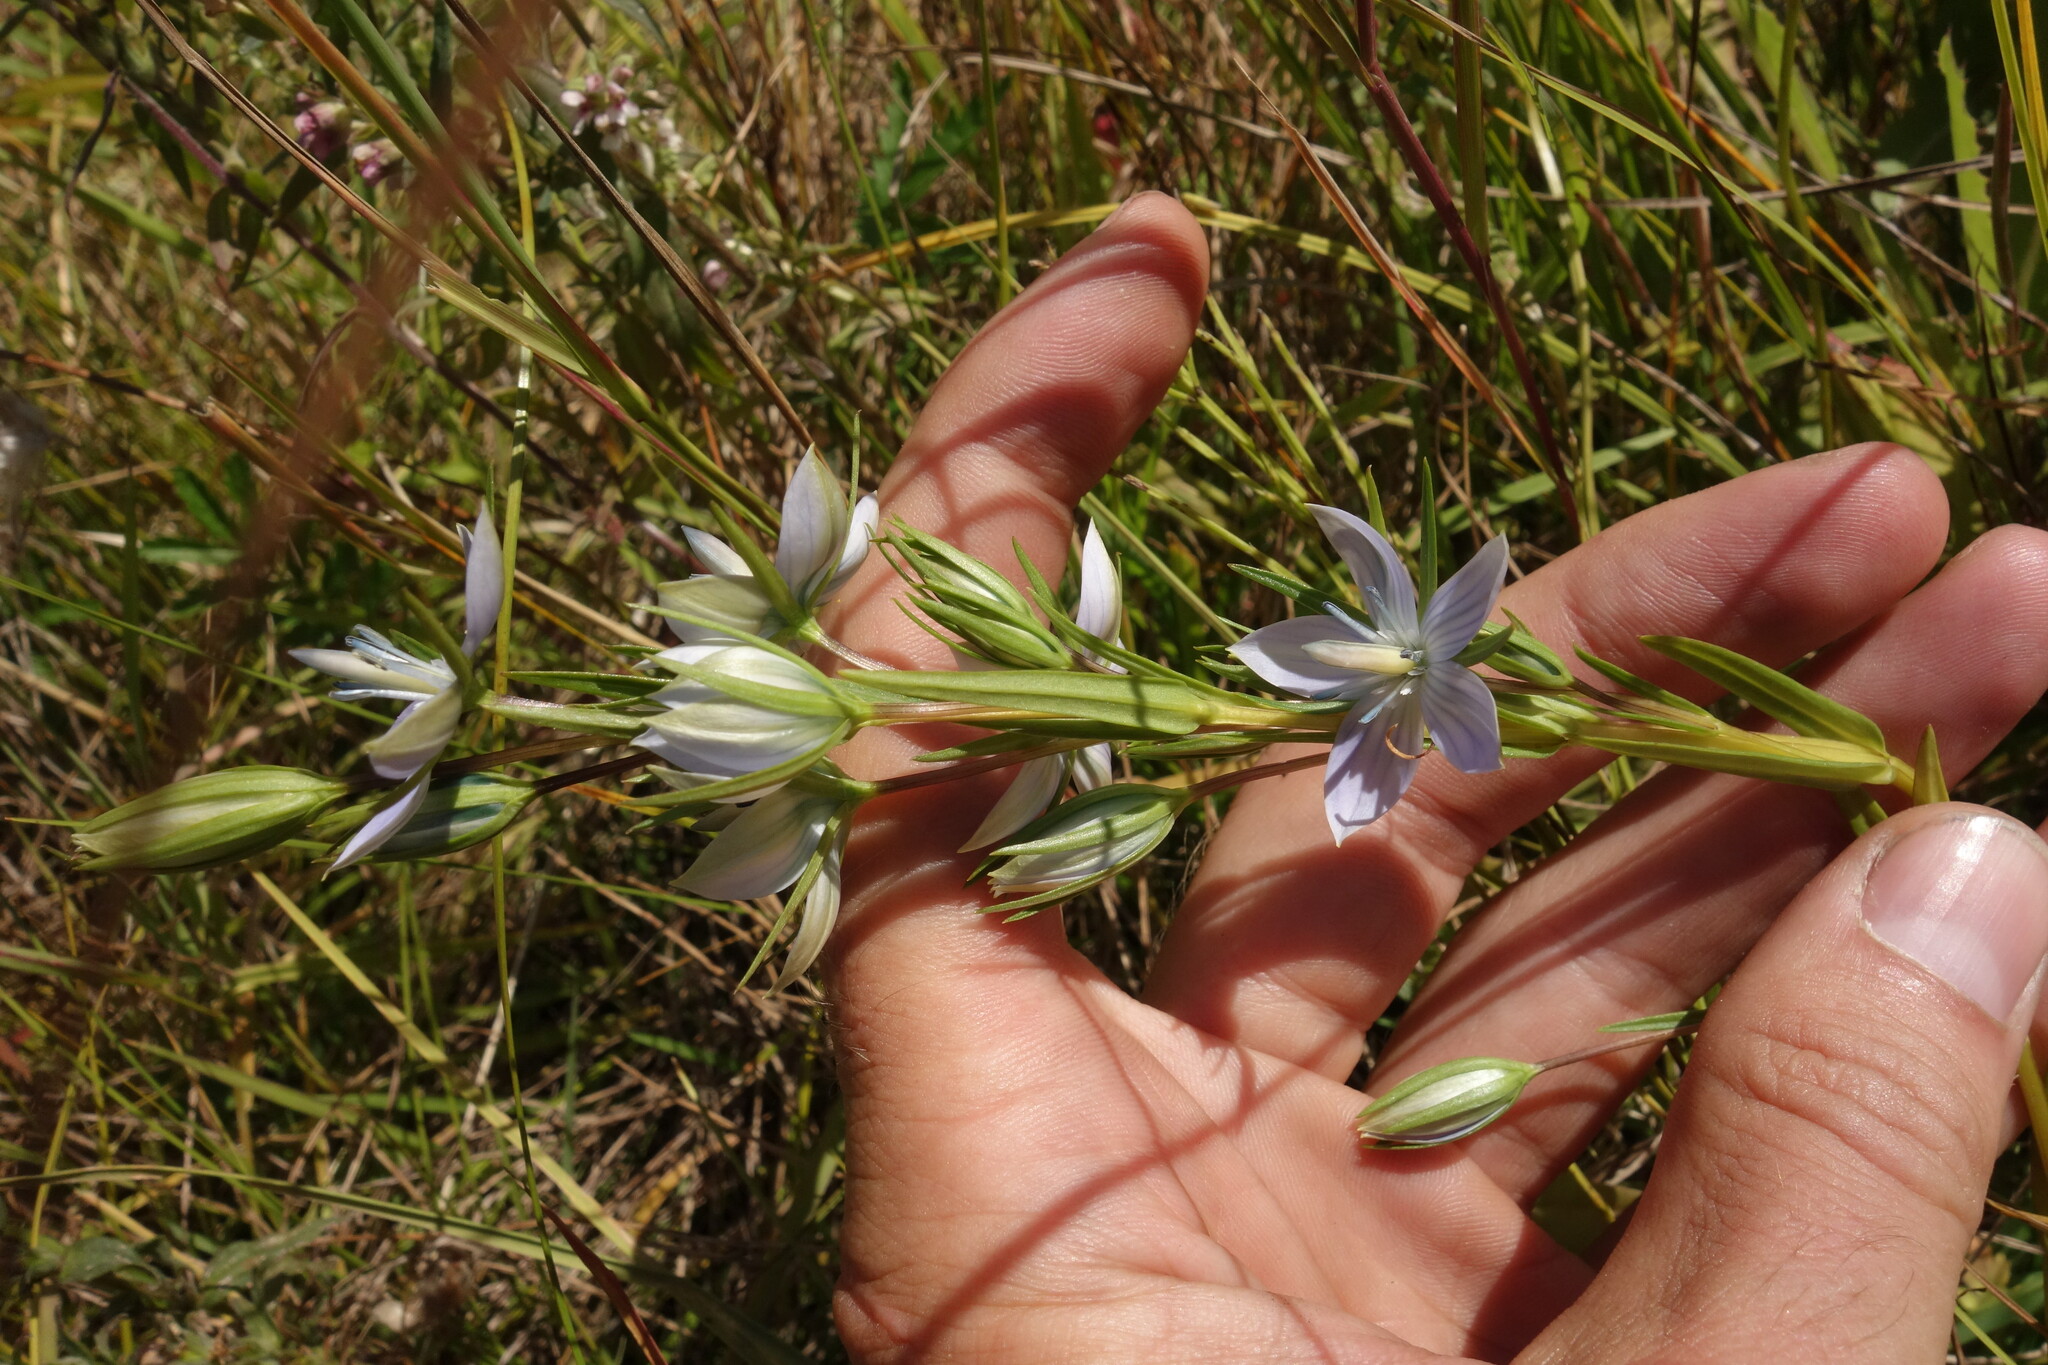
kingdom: Plantae
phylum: Tracheophyta
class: Magnoliopsida
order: Gentianales
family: Gentianaceae
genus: Lomatogonium
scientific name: Lomatogonium rotatum
